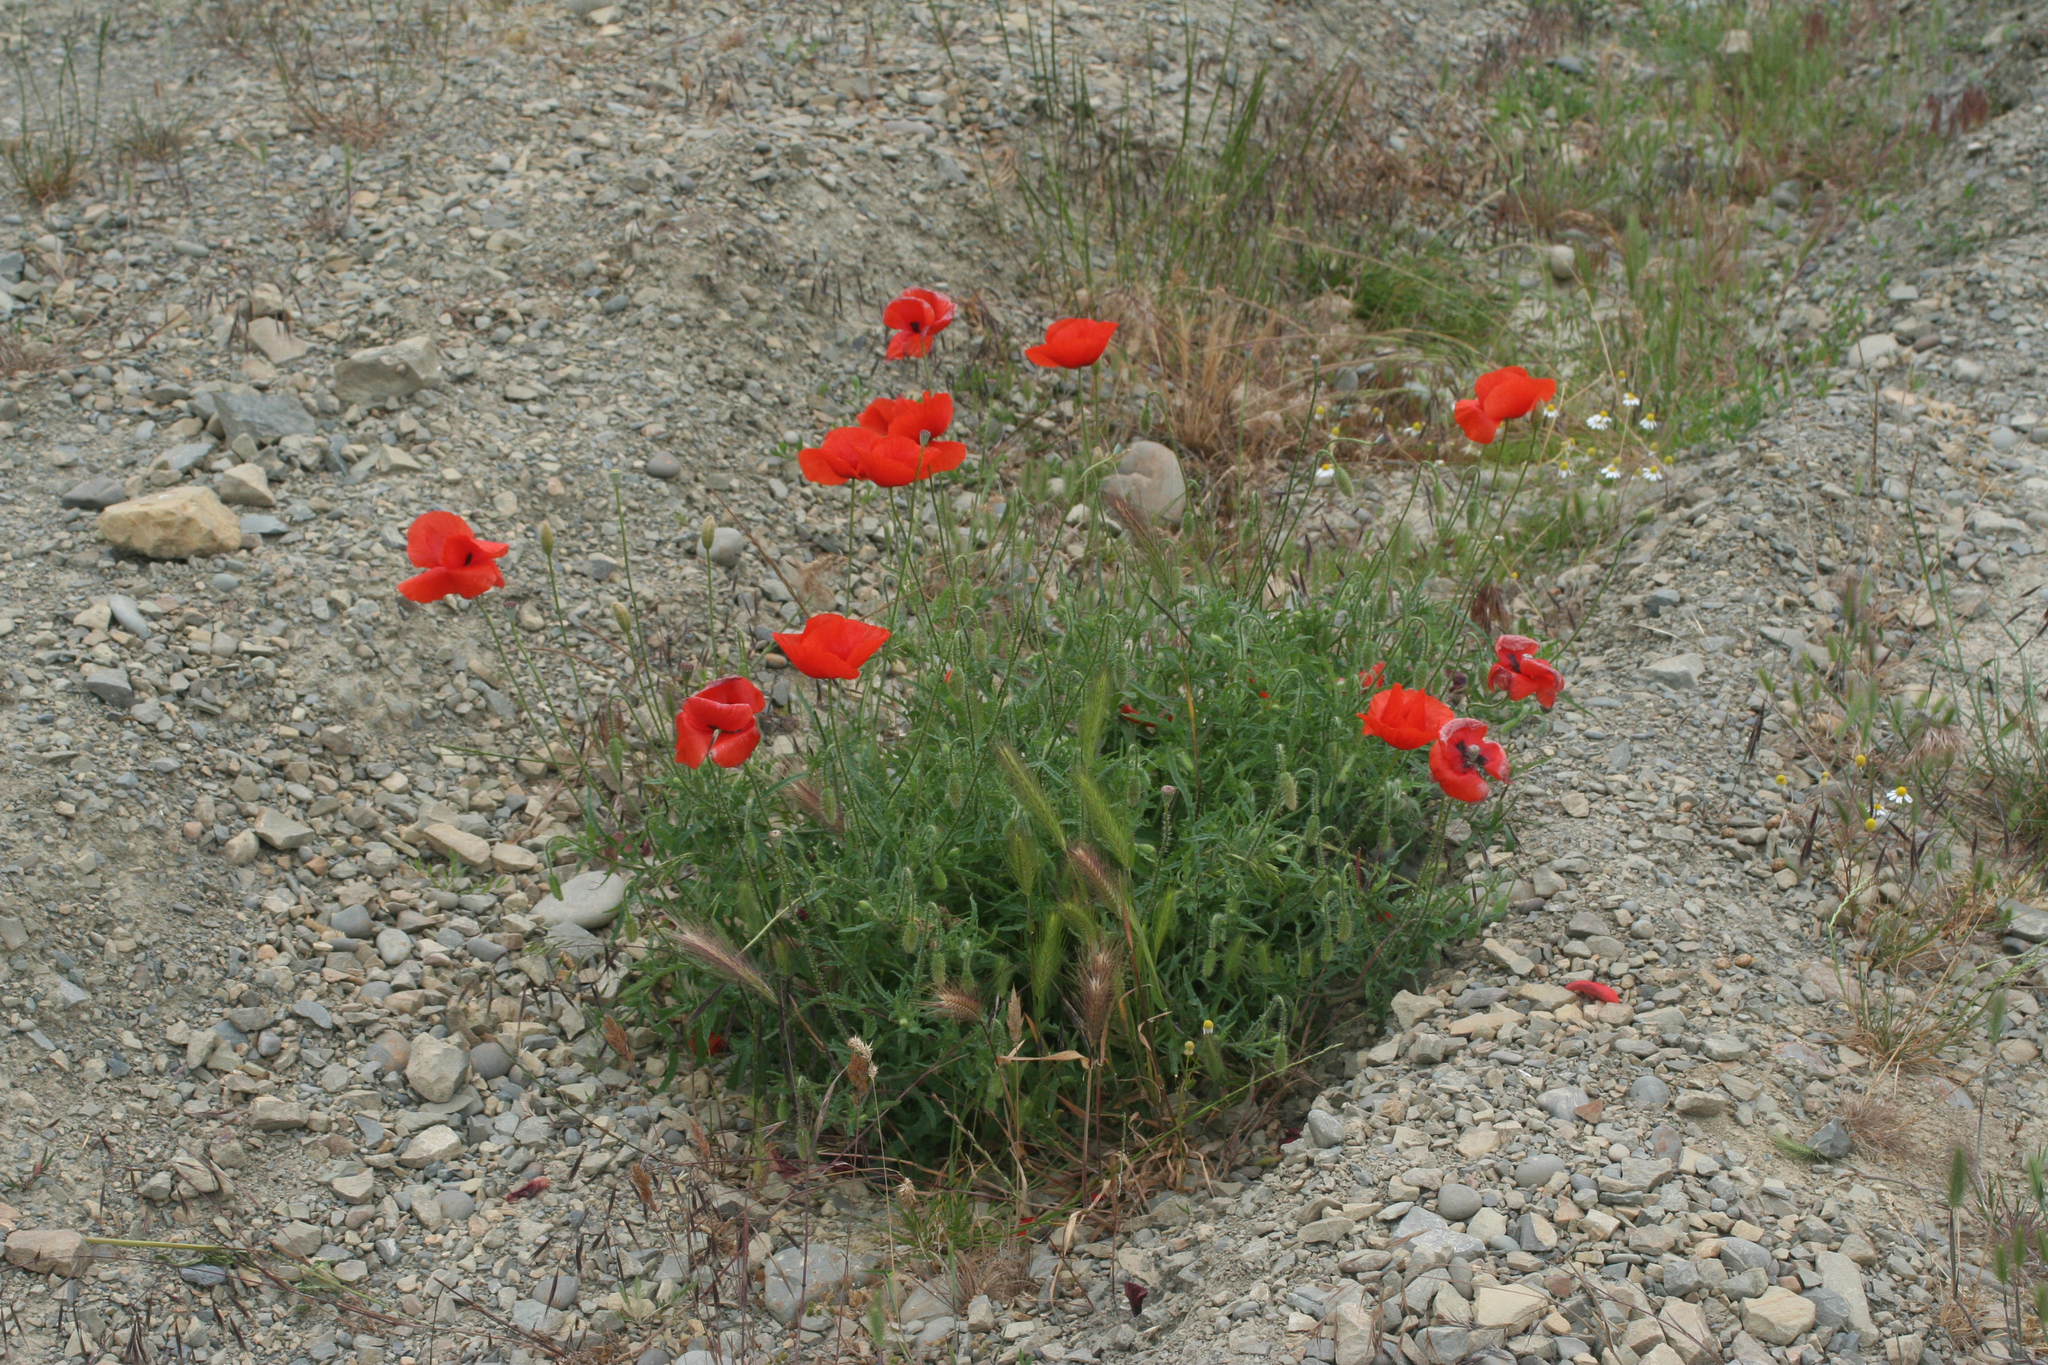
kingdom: Plantae
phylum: Tracheophyta
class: Magnoliopsida
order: Ranunculales
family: Papaveraceae
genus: Papaver
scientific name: Papaver rhoeas
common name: Corn poppy
